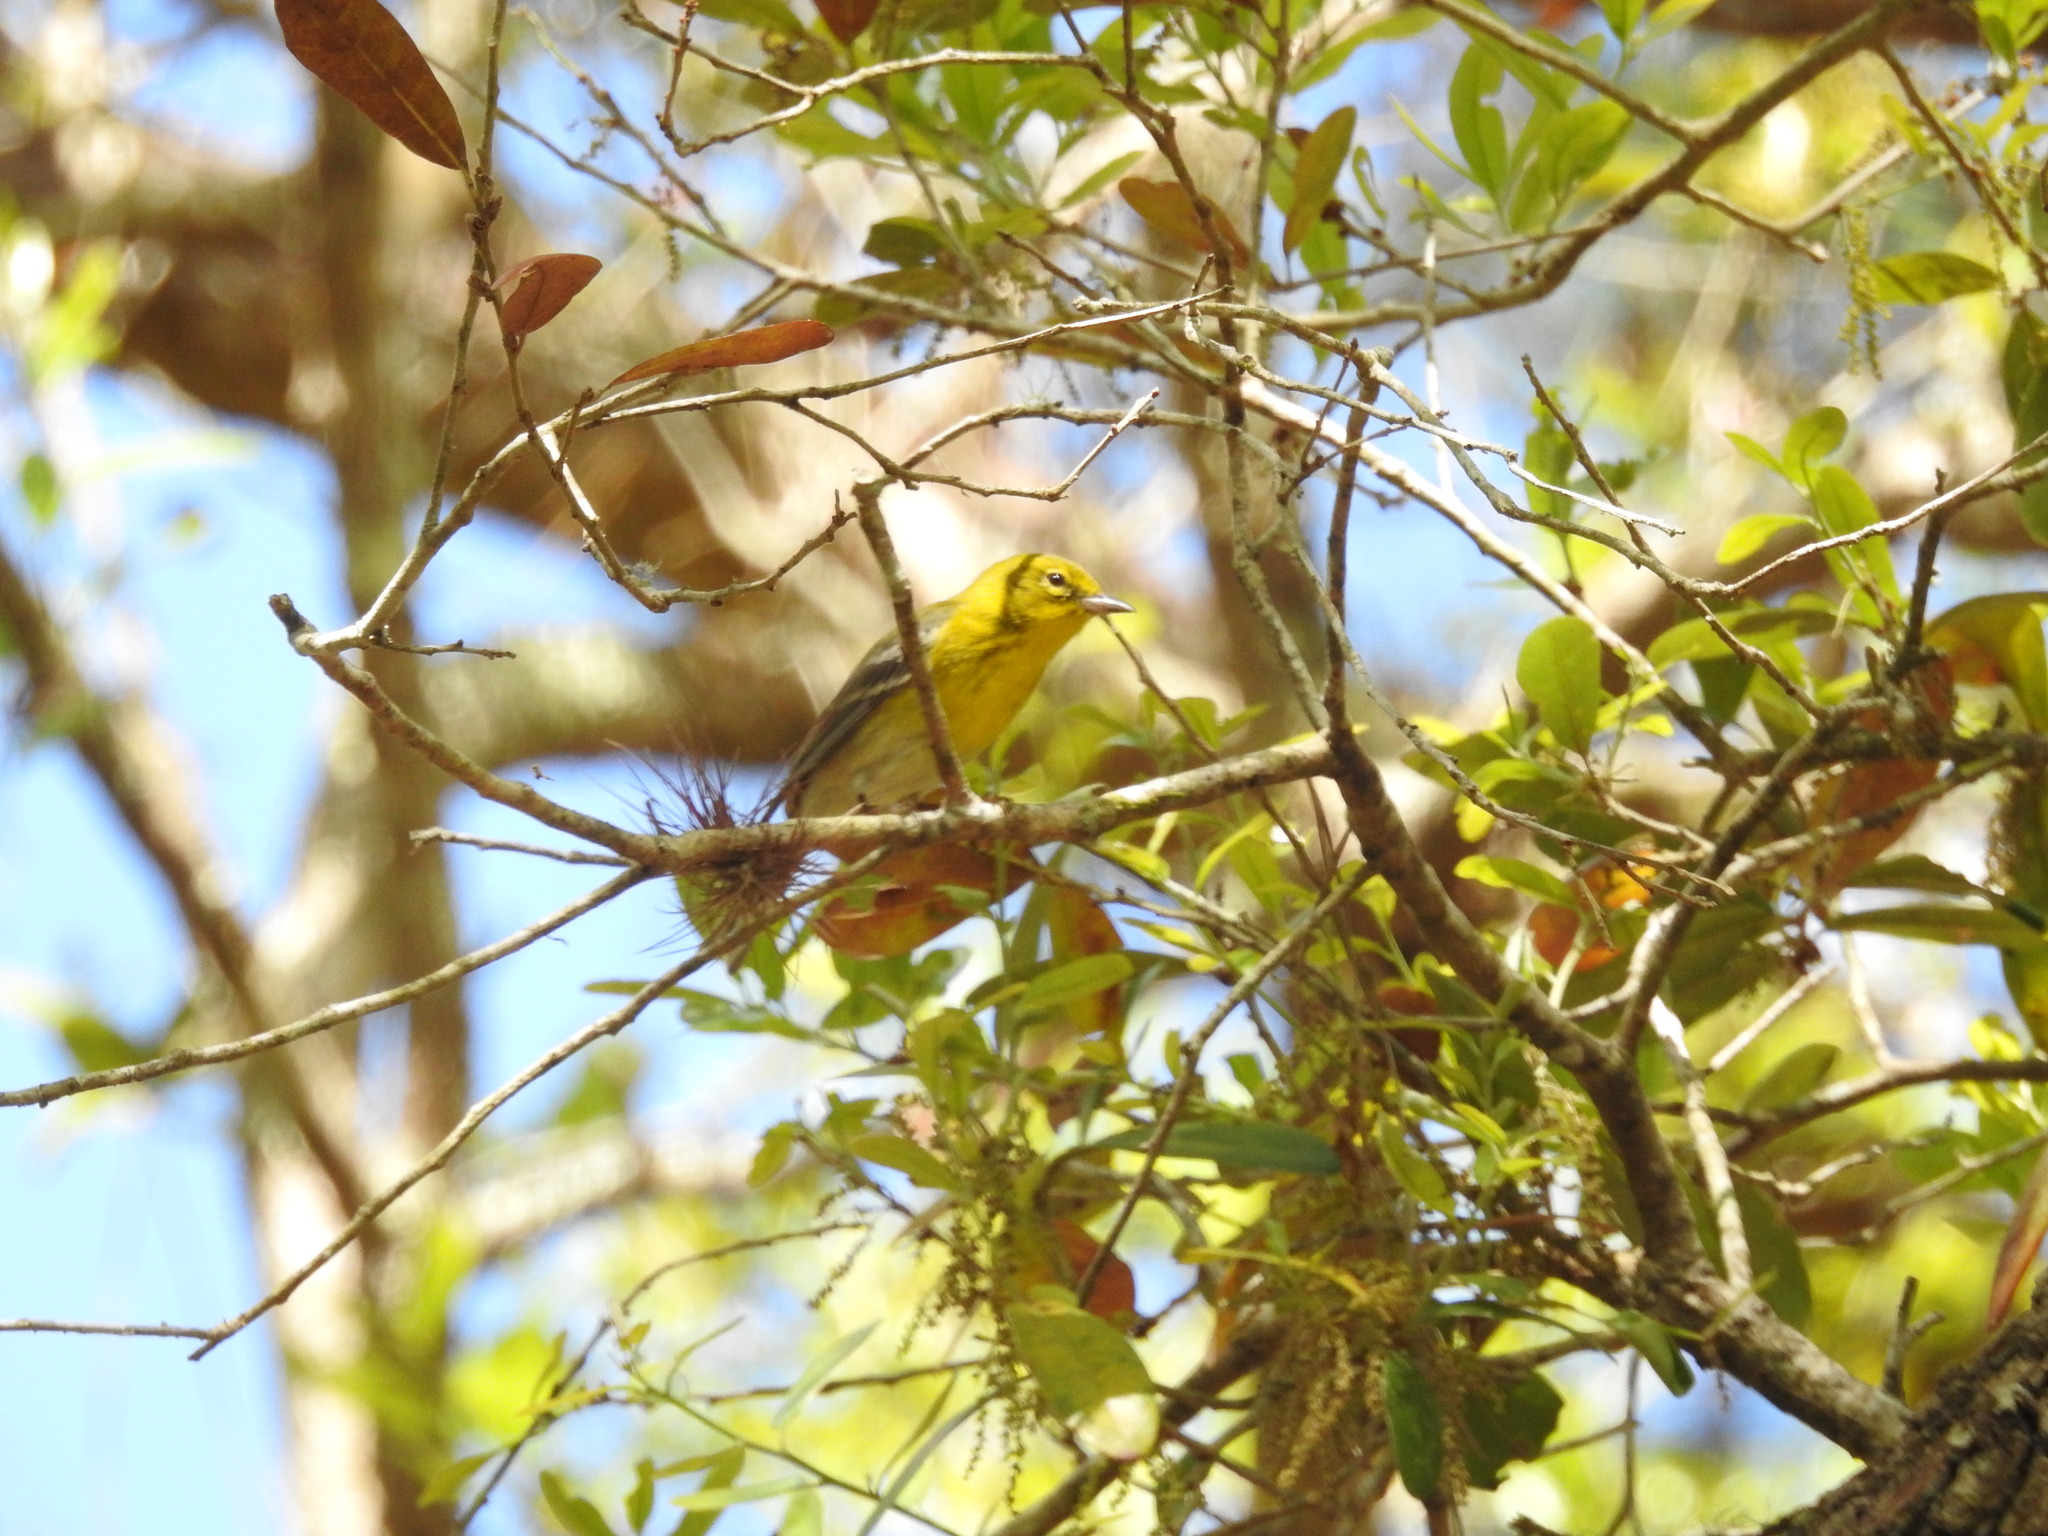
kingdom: Animalia
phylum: Chordata
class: Aves
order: Passeriformes
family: Parulidae
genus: Setophaga
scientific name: Setophaga pinus
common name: Pine warbler
